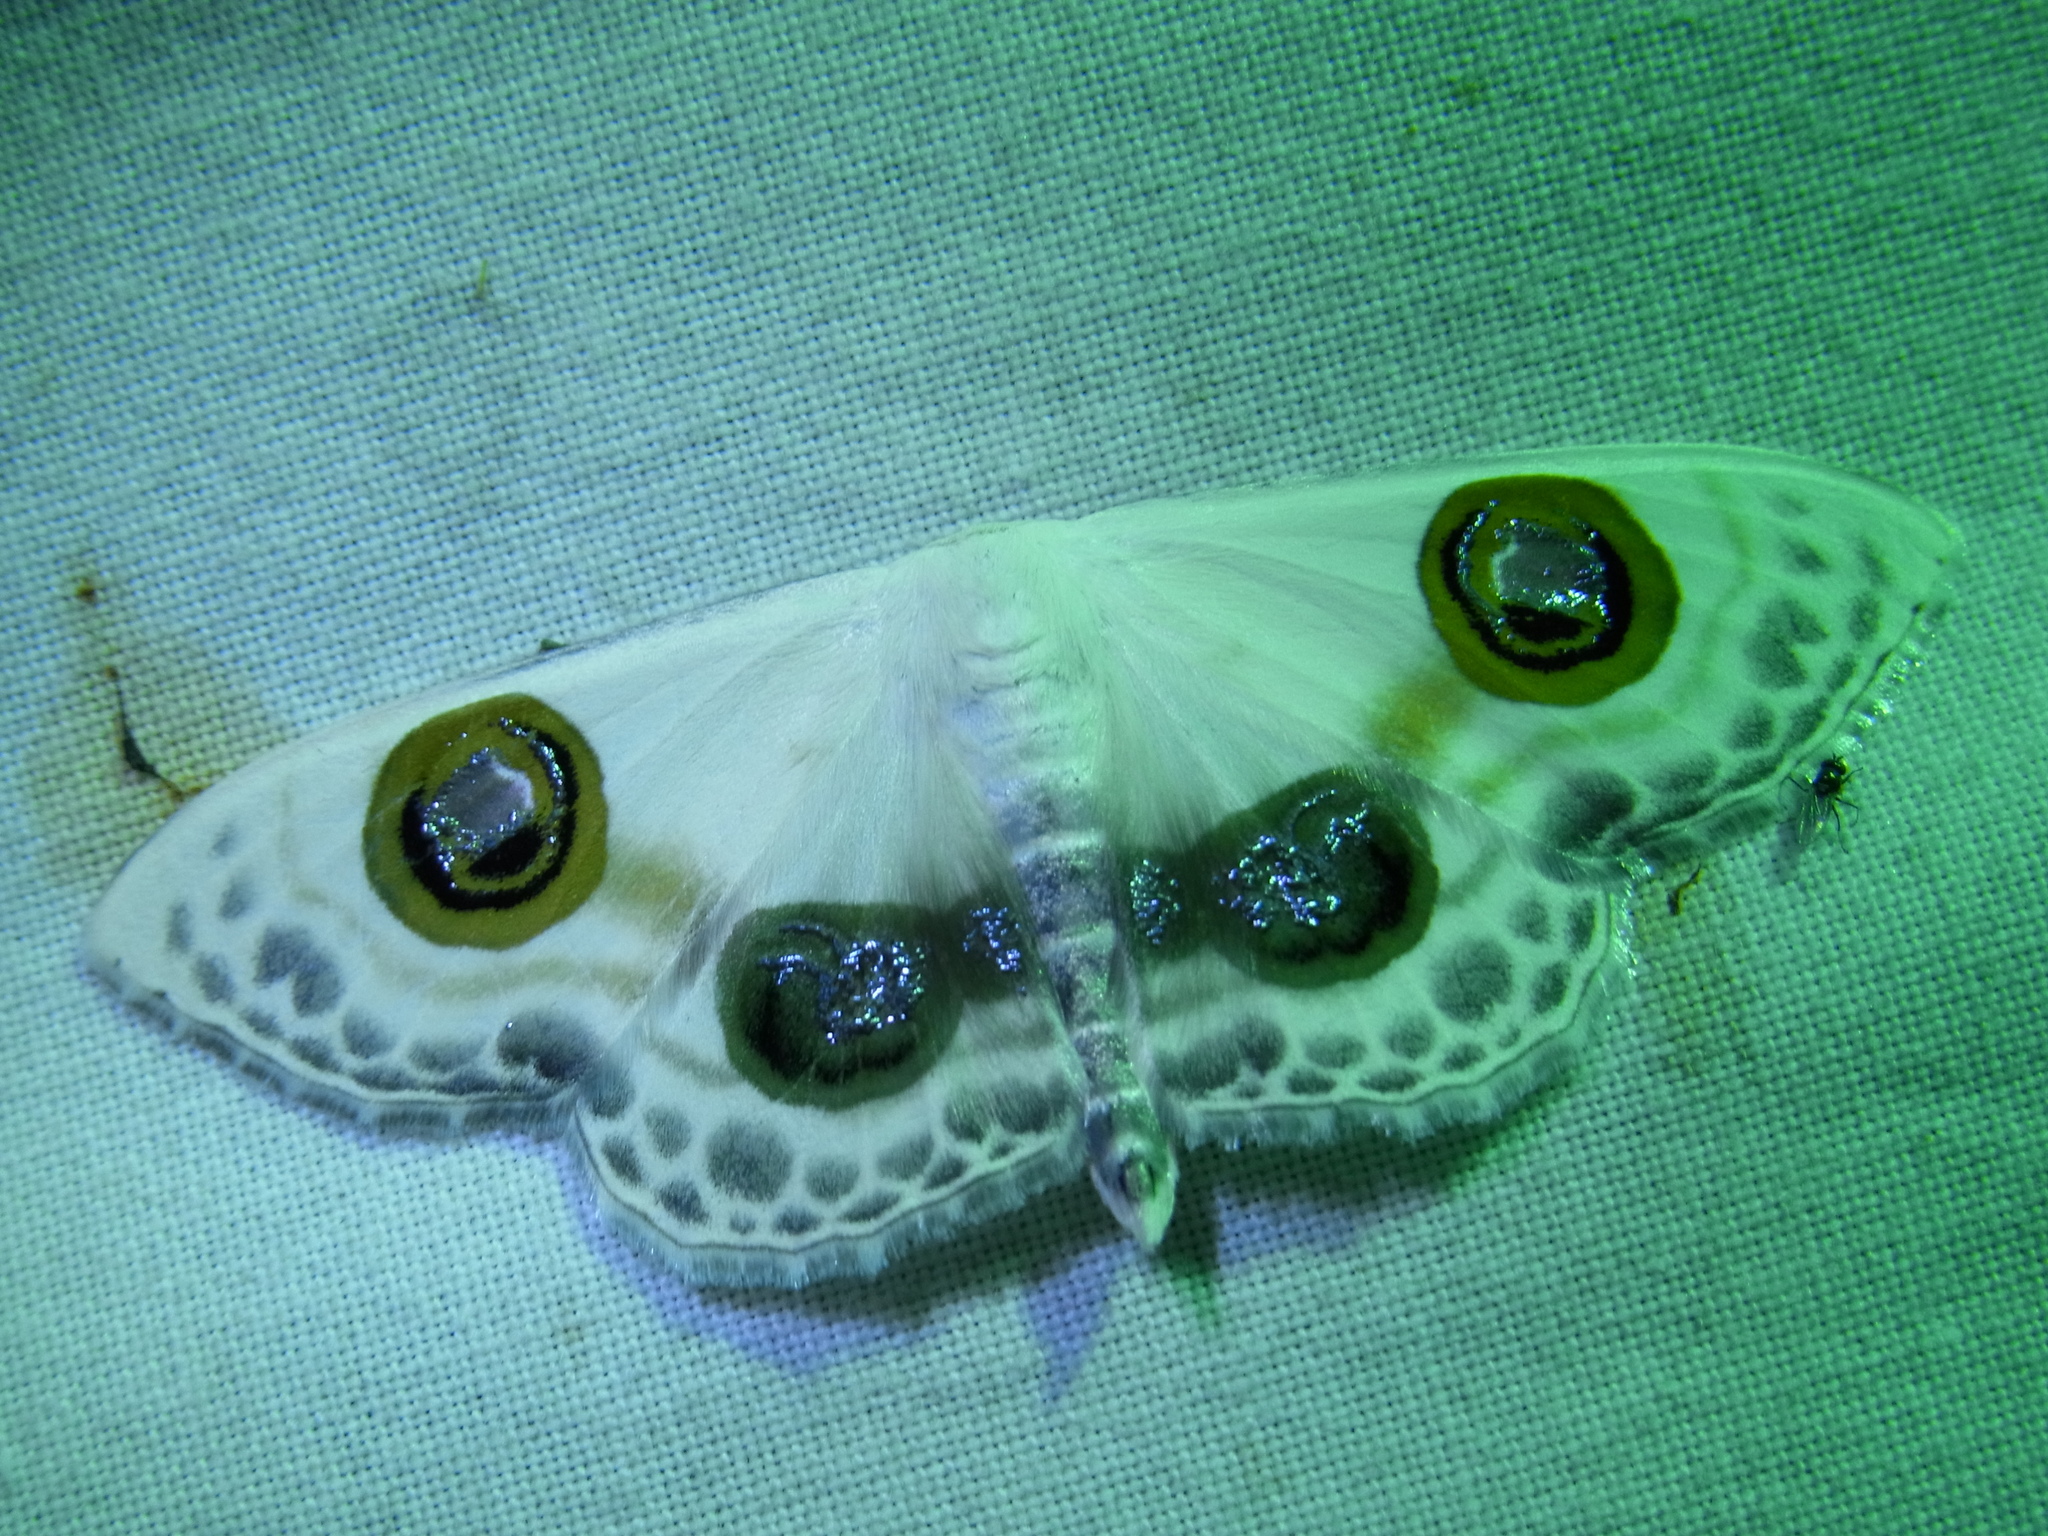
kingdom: Animalia
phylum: Arthropoda
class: Insecta
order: Lepidoptera
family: Geometridae
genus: Problepsis
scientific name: Problepsis superans
